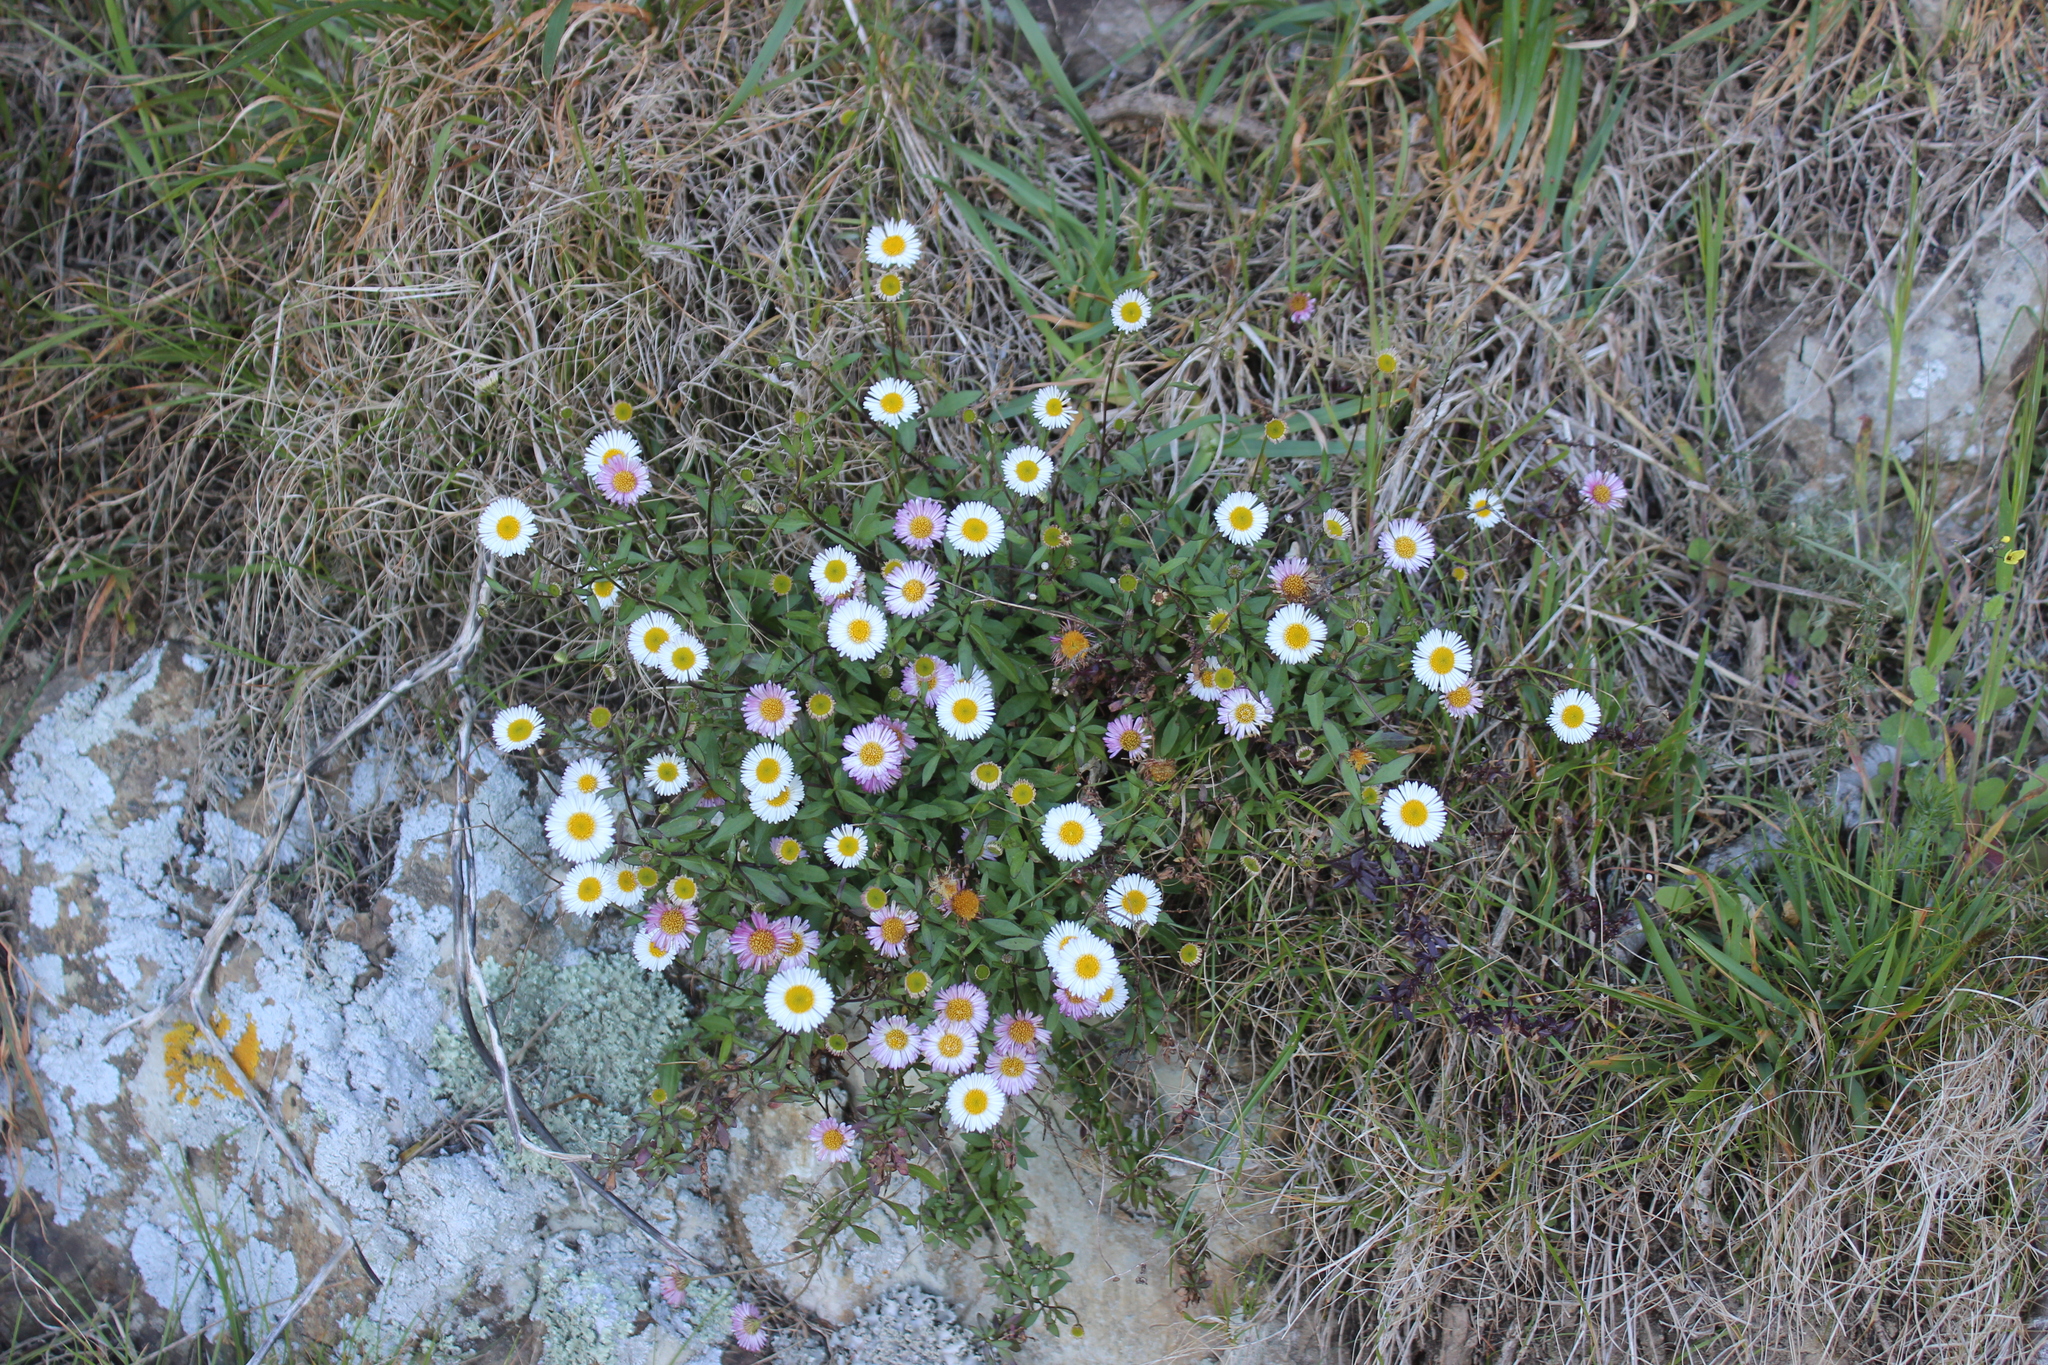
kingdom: Plantae
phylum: Tracheophyta
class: Magnoliopsida
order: Asterales
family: Asteraceae
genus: Erigeron
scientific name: Erigeron karvinskianus
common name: Mexican fleabane
